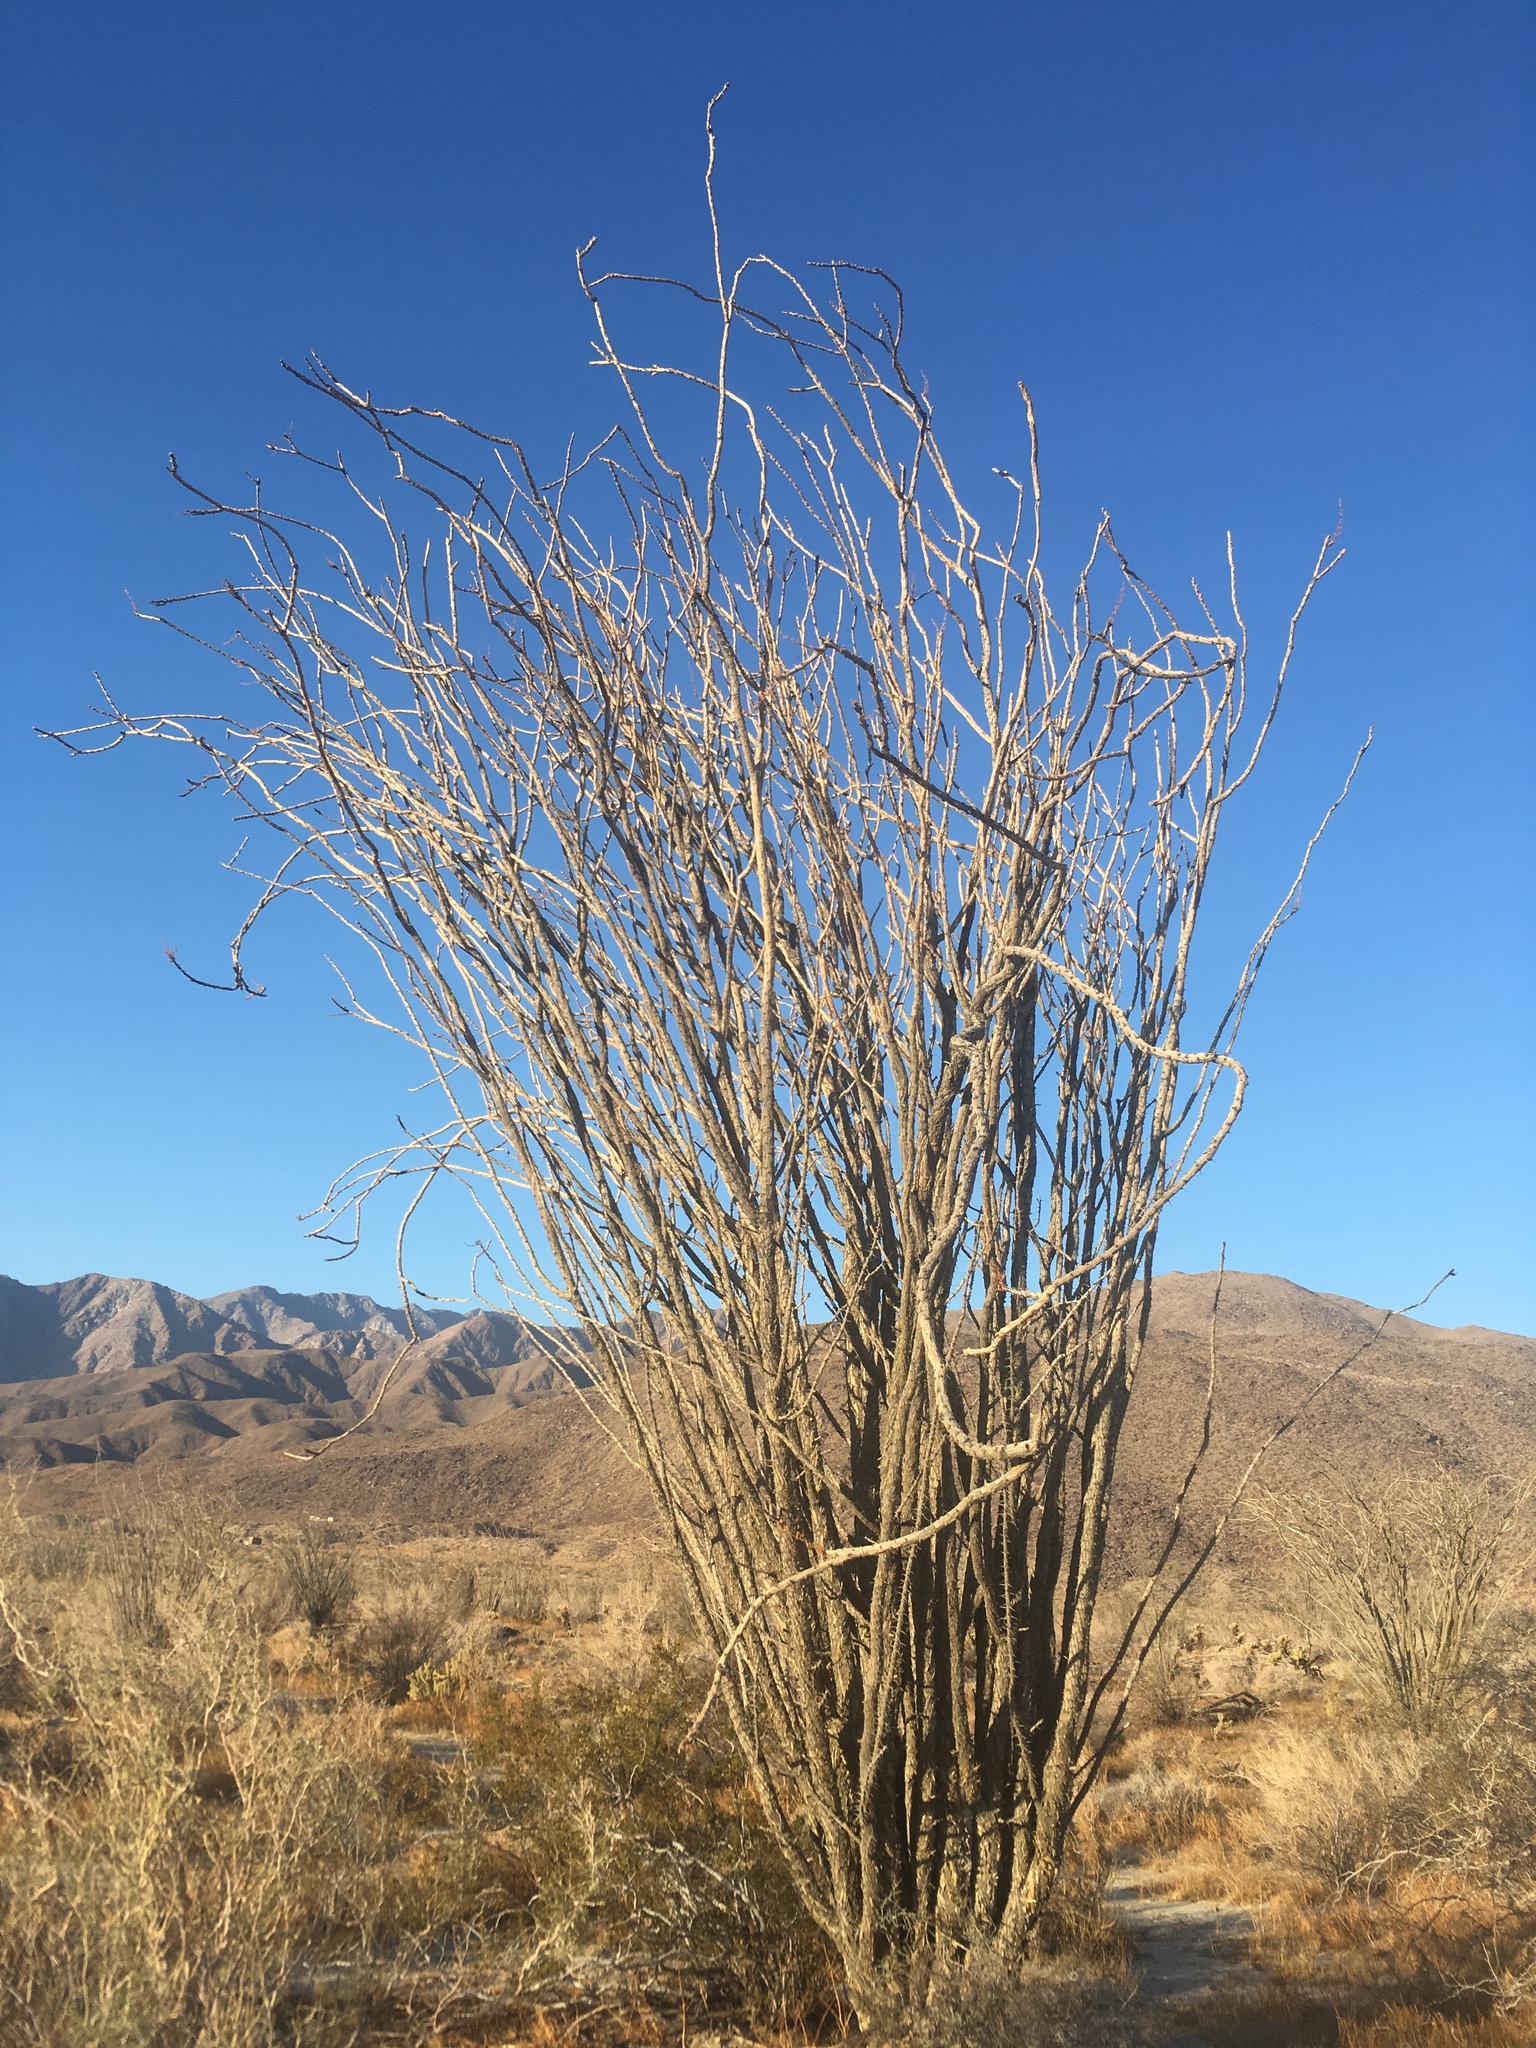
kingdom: Plantae
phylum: Tracheophyta
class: Magnoliopsida
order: Ericales
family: Fouquieriaceae
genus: Fouquieria
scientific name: Fouquieria splendens
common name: Vine-cactus
